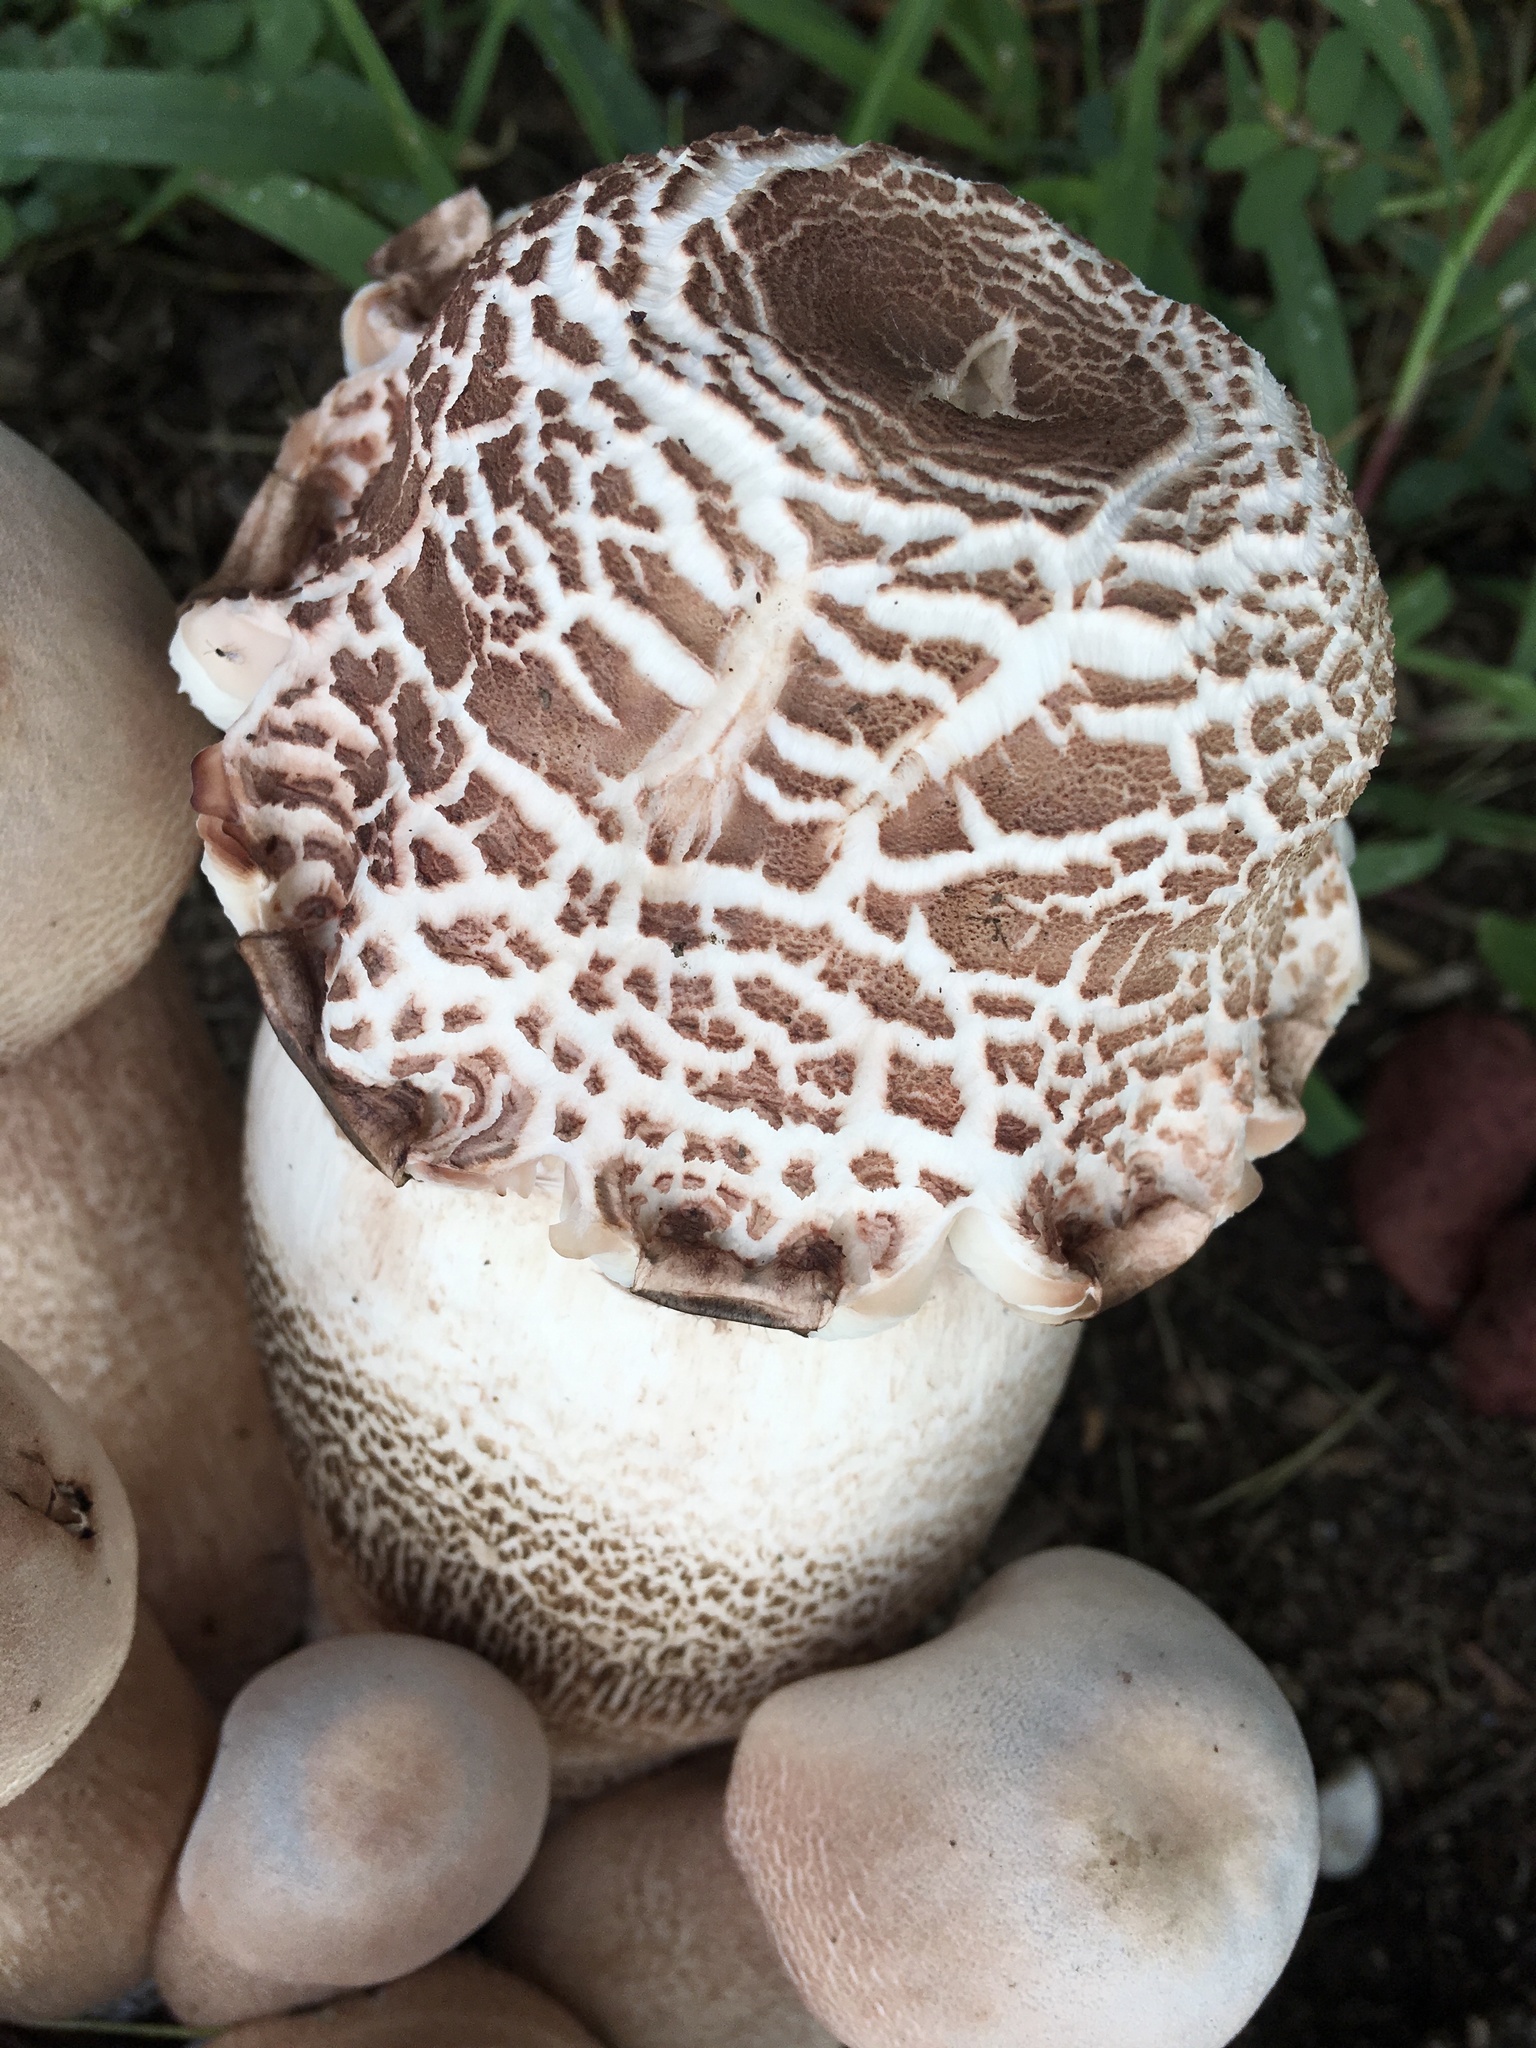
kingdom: Fungi
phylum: Basidiomycota
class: Agaricomycetes
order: Agaricales
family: Agaricaceae
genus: Leucoagaricus
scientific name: Leucoagaricus americanus
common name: Reddening lepiota
